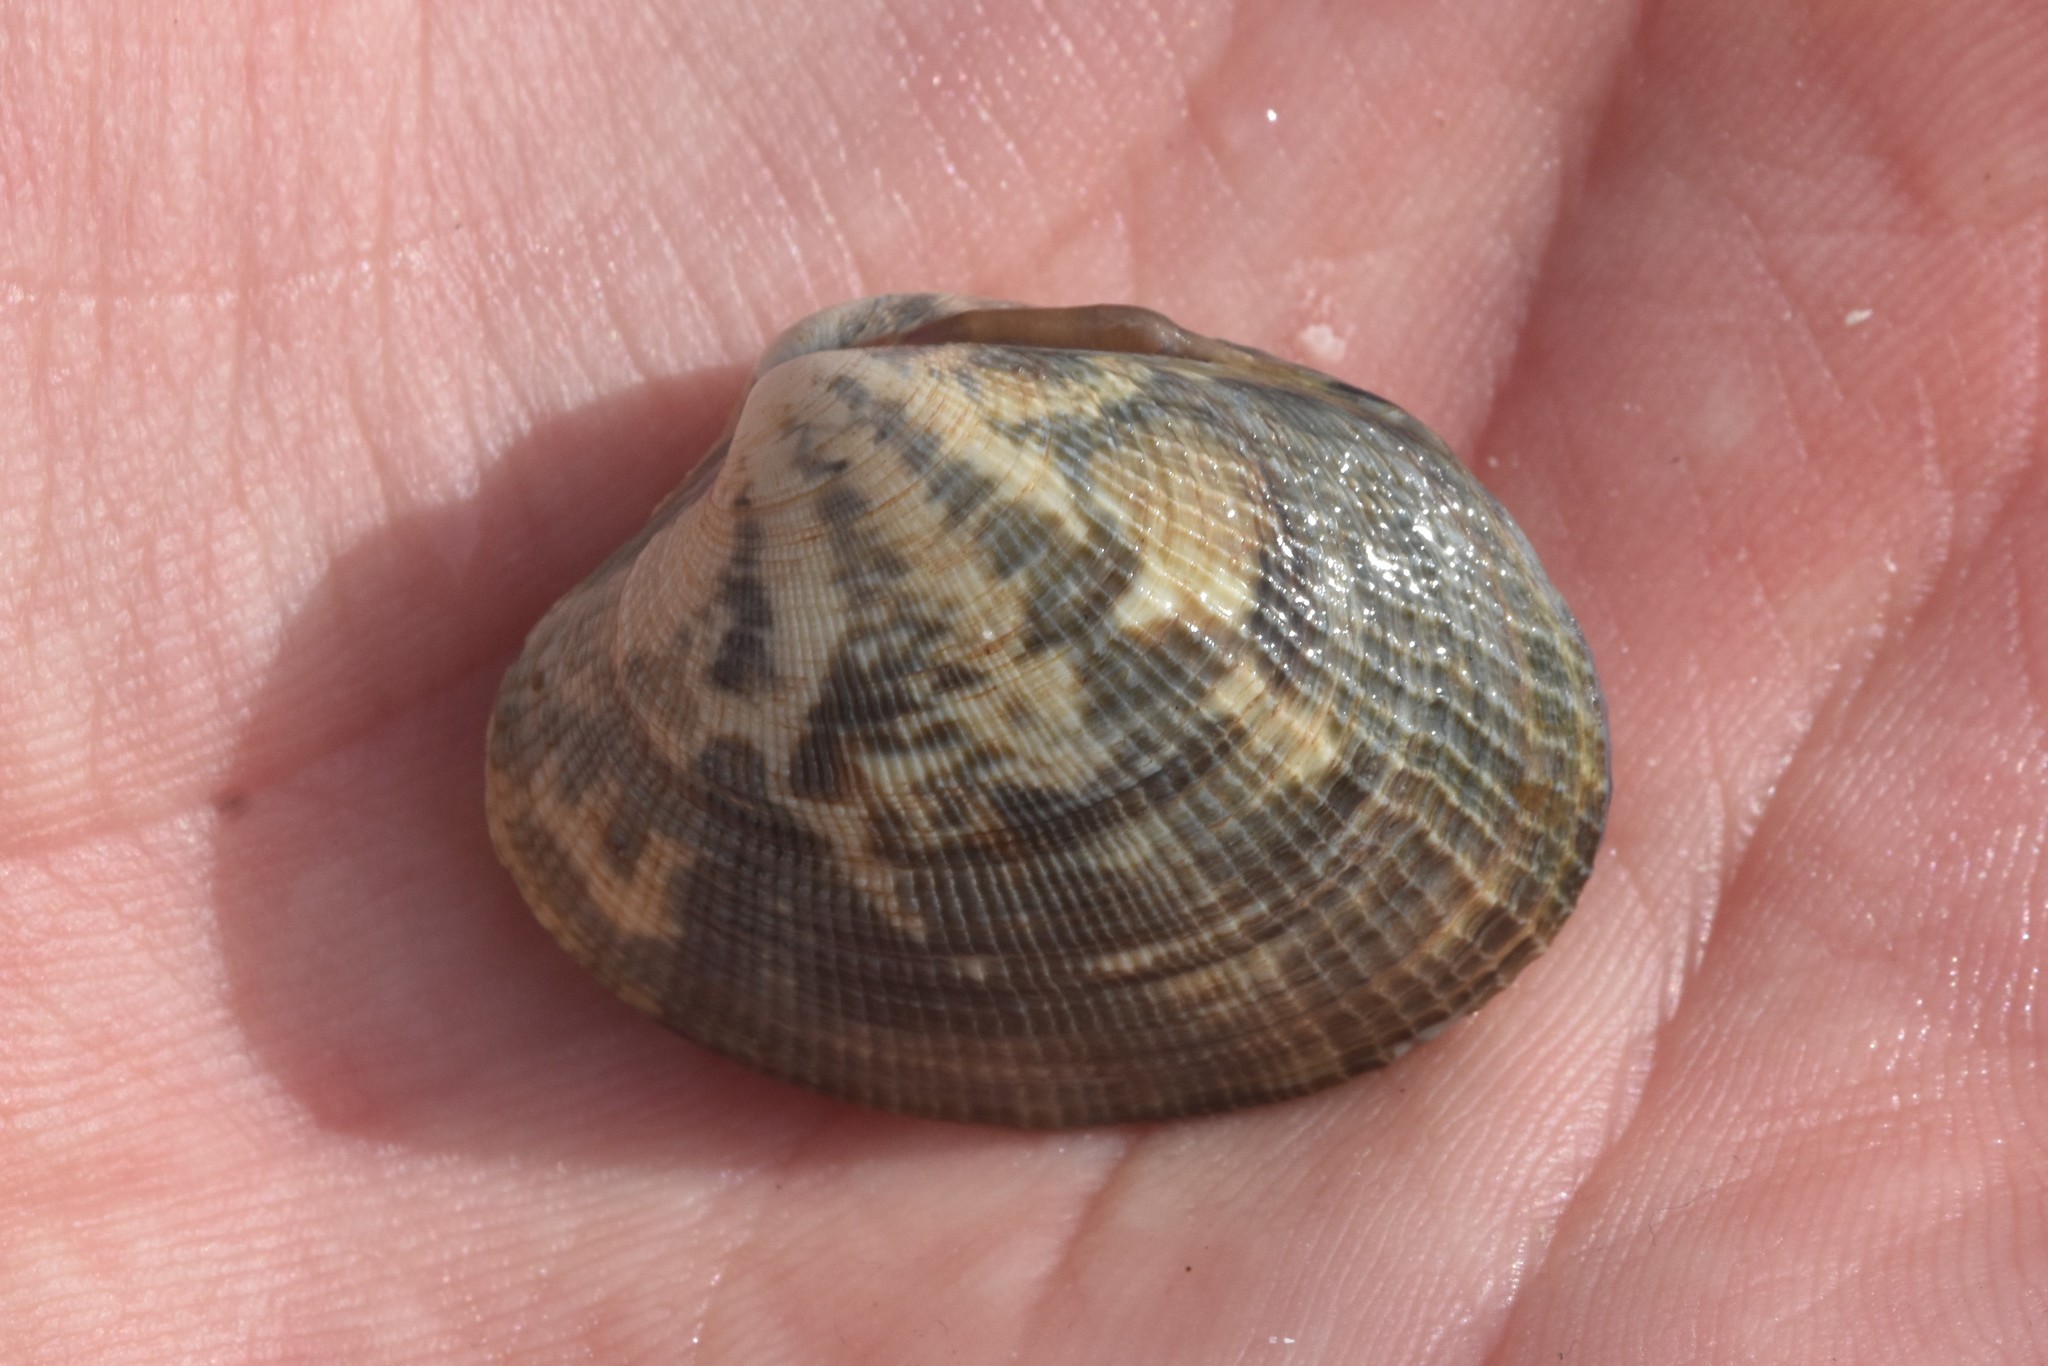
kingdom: Animalia
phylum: Mollusca
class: Bivalvia
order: Venerida
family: Veneridae
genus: Ruditapes
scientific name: Ruditapes philippinarum
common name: Manila clam
